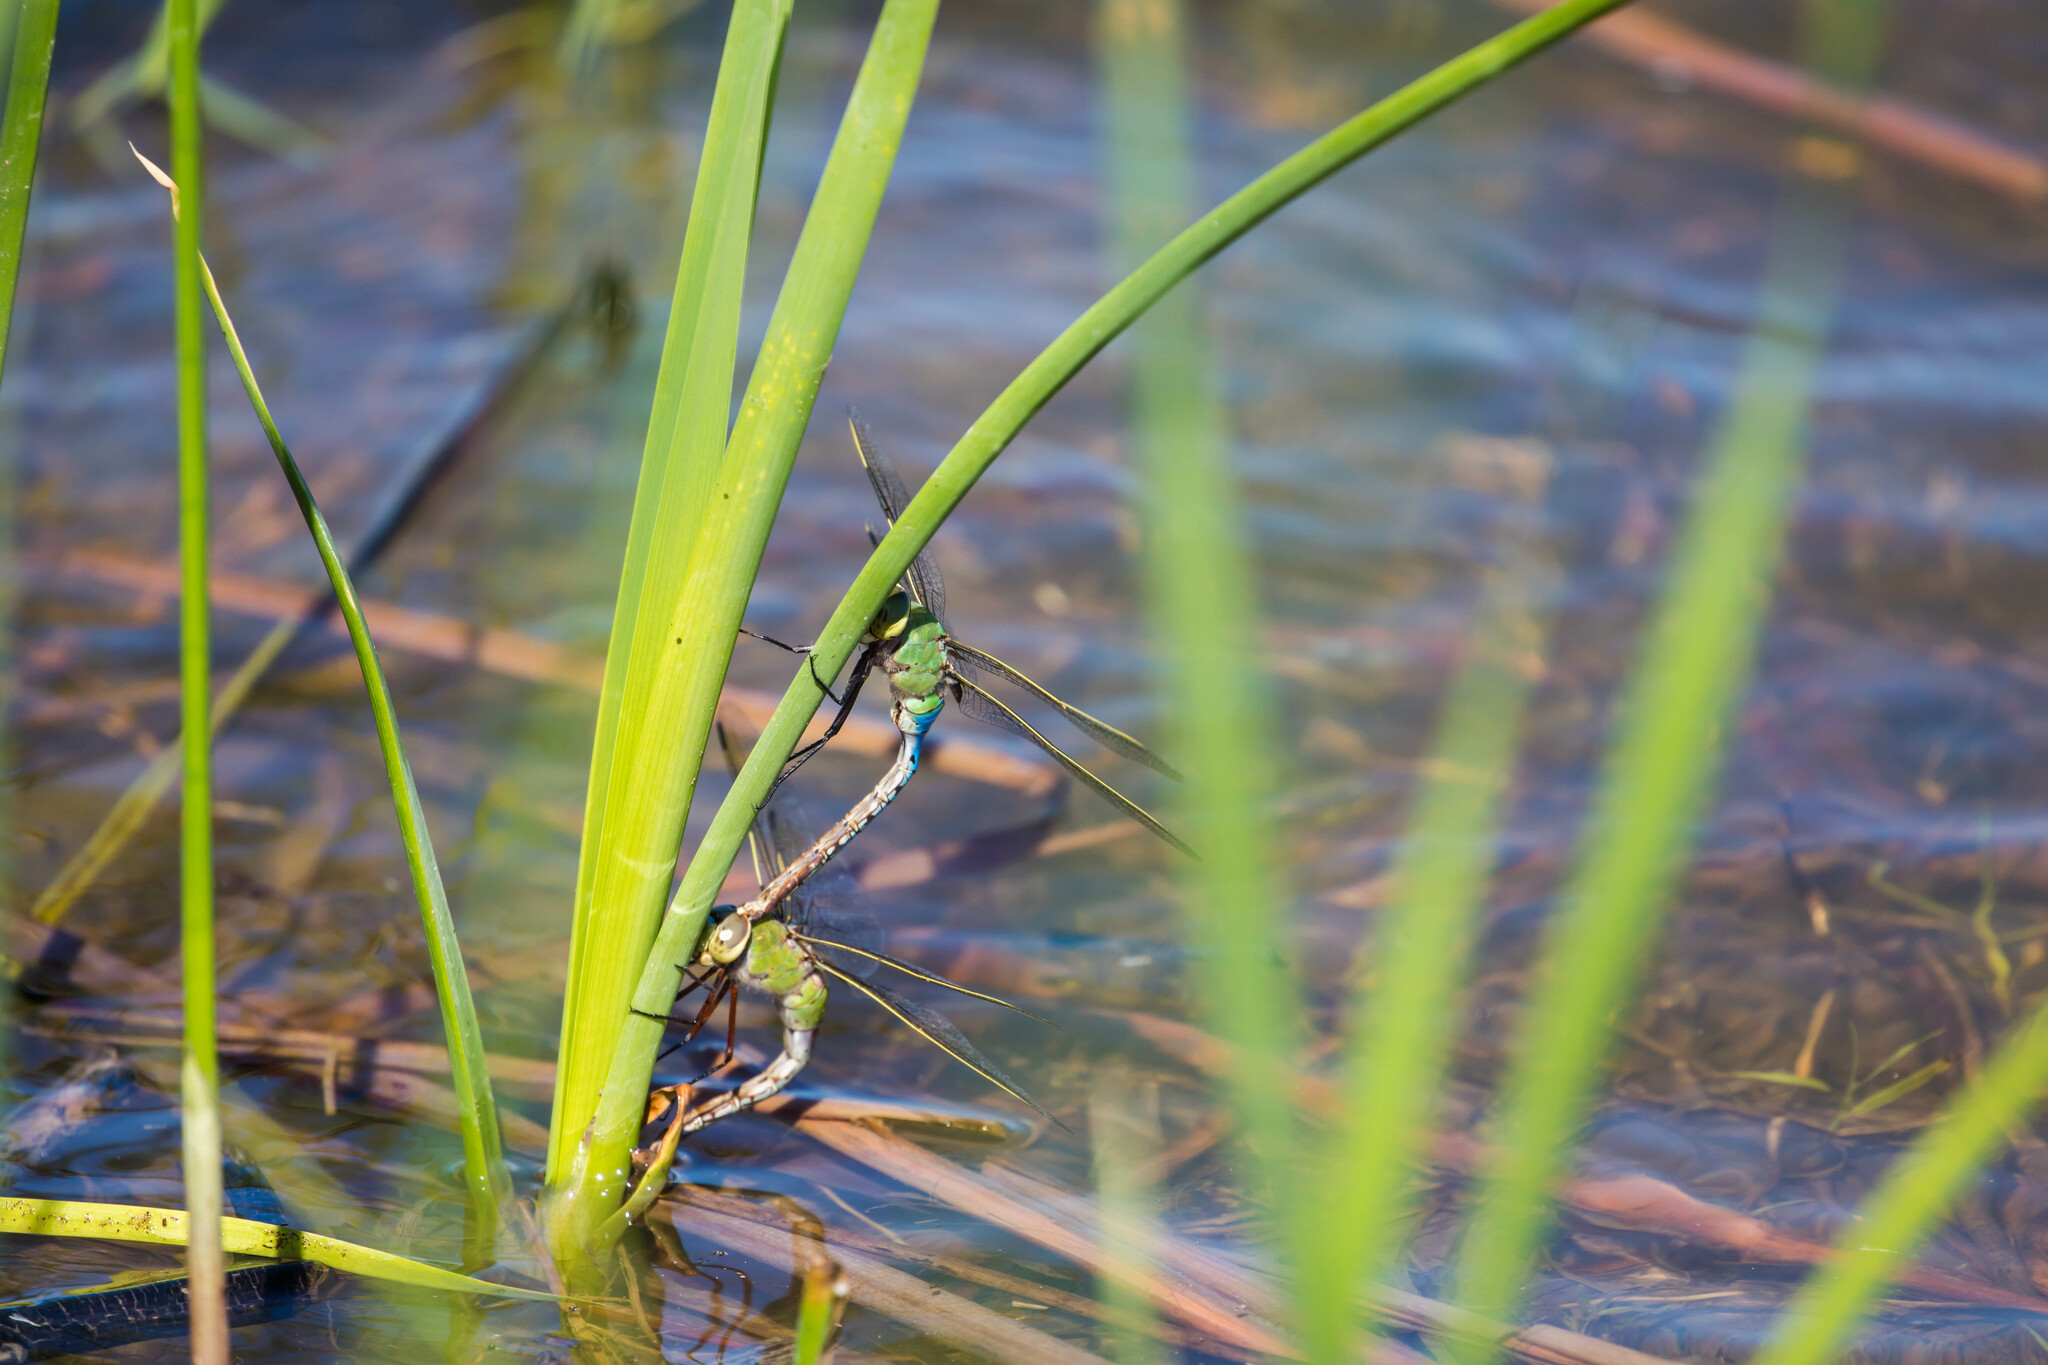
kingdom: Animalia
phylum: Arthropoda
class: Insecta
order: Odonata
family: Aeshnidae
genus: Anax
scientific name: Anax junius
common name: Common green darner
